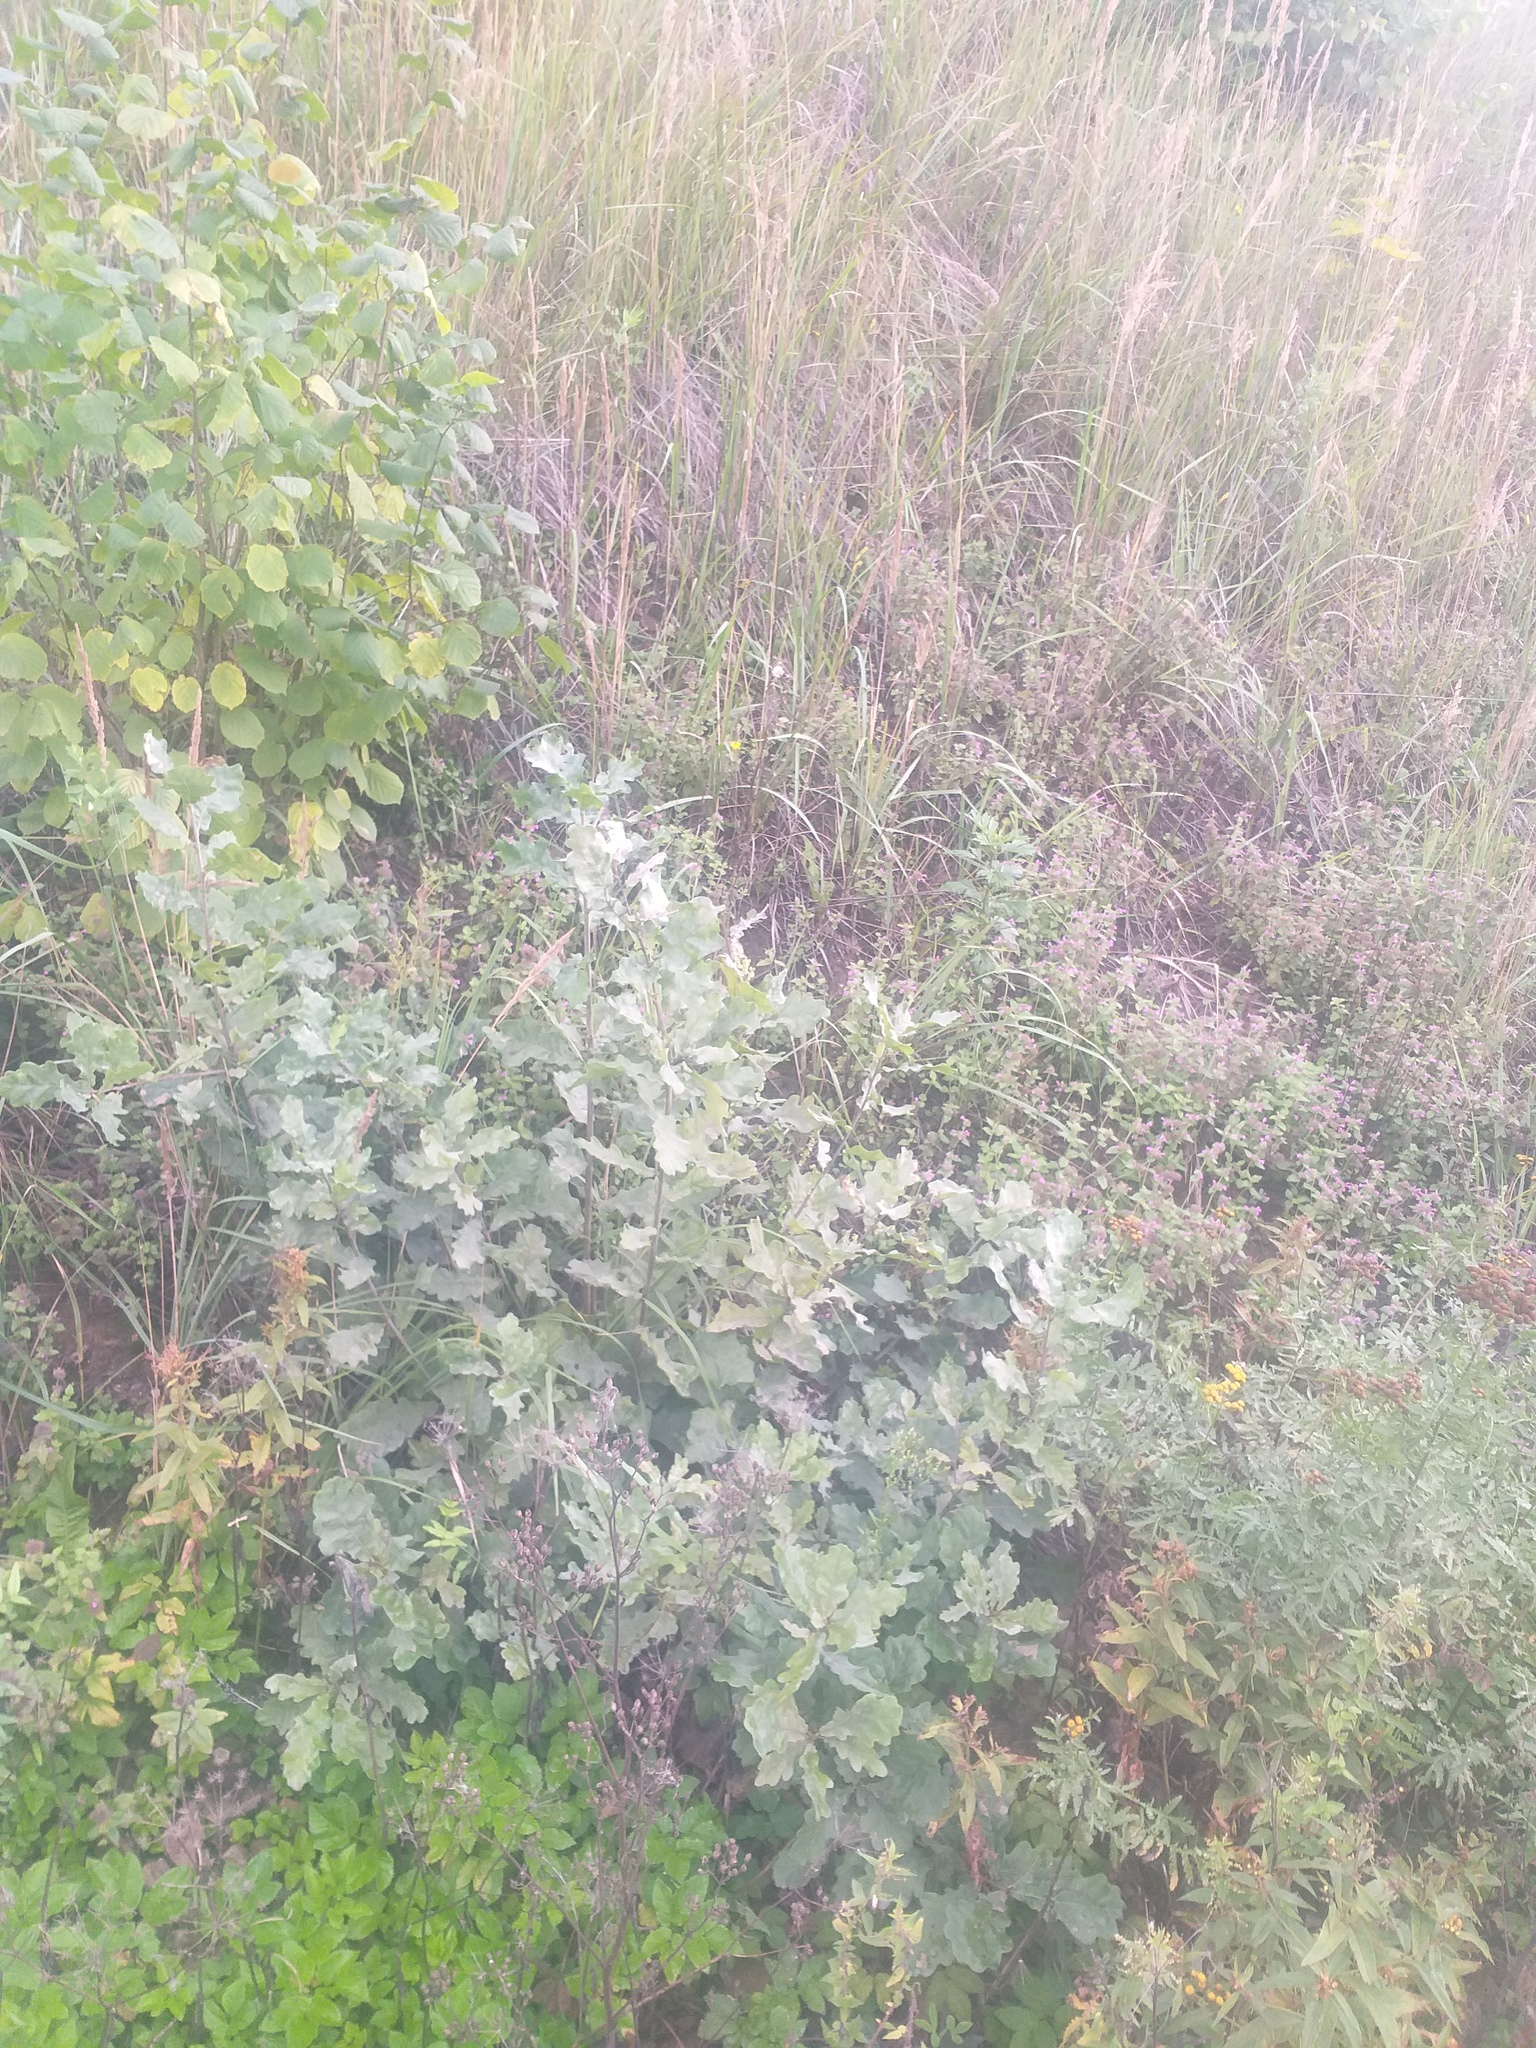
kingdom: Plantae
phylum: Tracheophyta
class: Magnoliopsida
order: Fagales
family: Fagaceae
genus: Quercus
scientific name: Quercus robur
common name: Pedunculate oak
